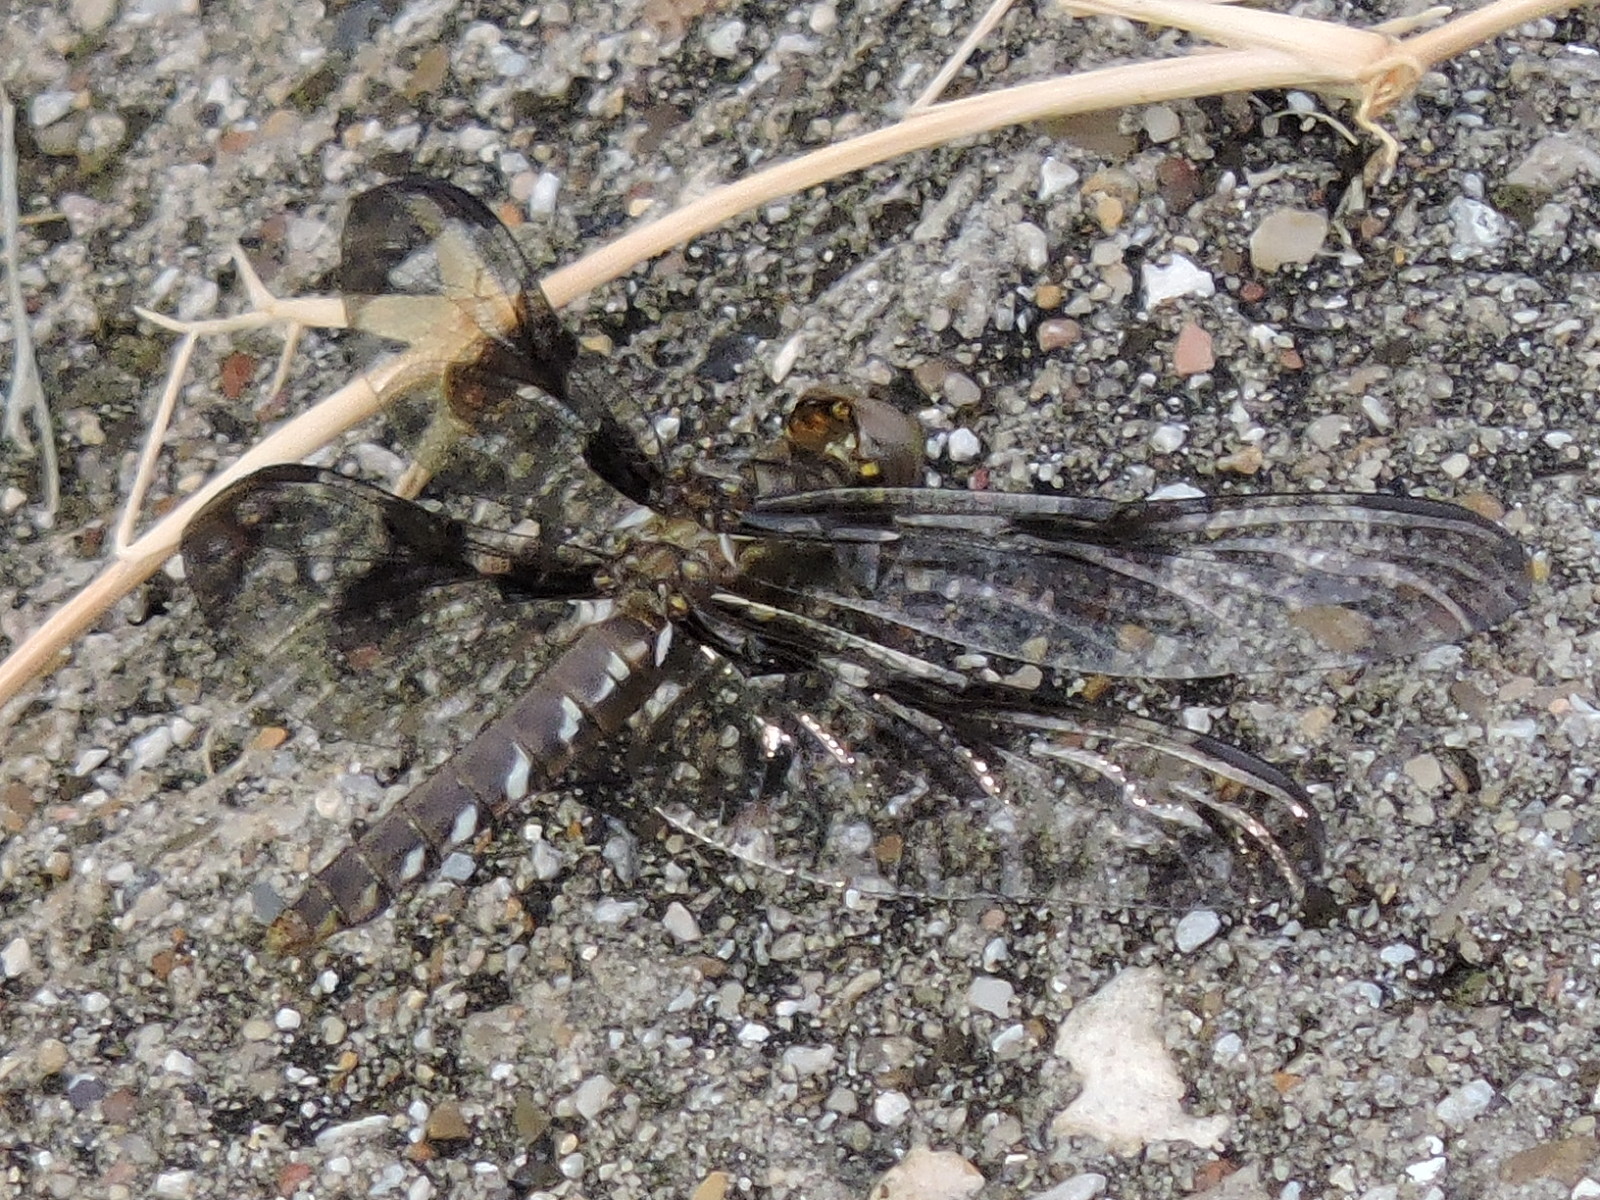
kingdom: Animalia
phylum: Arthropoda
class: Insecta
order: Odonata
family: Libellulidae
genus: Plathemis
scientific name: Plathemis lydia
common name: Common whitetail
